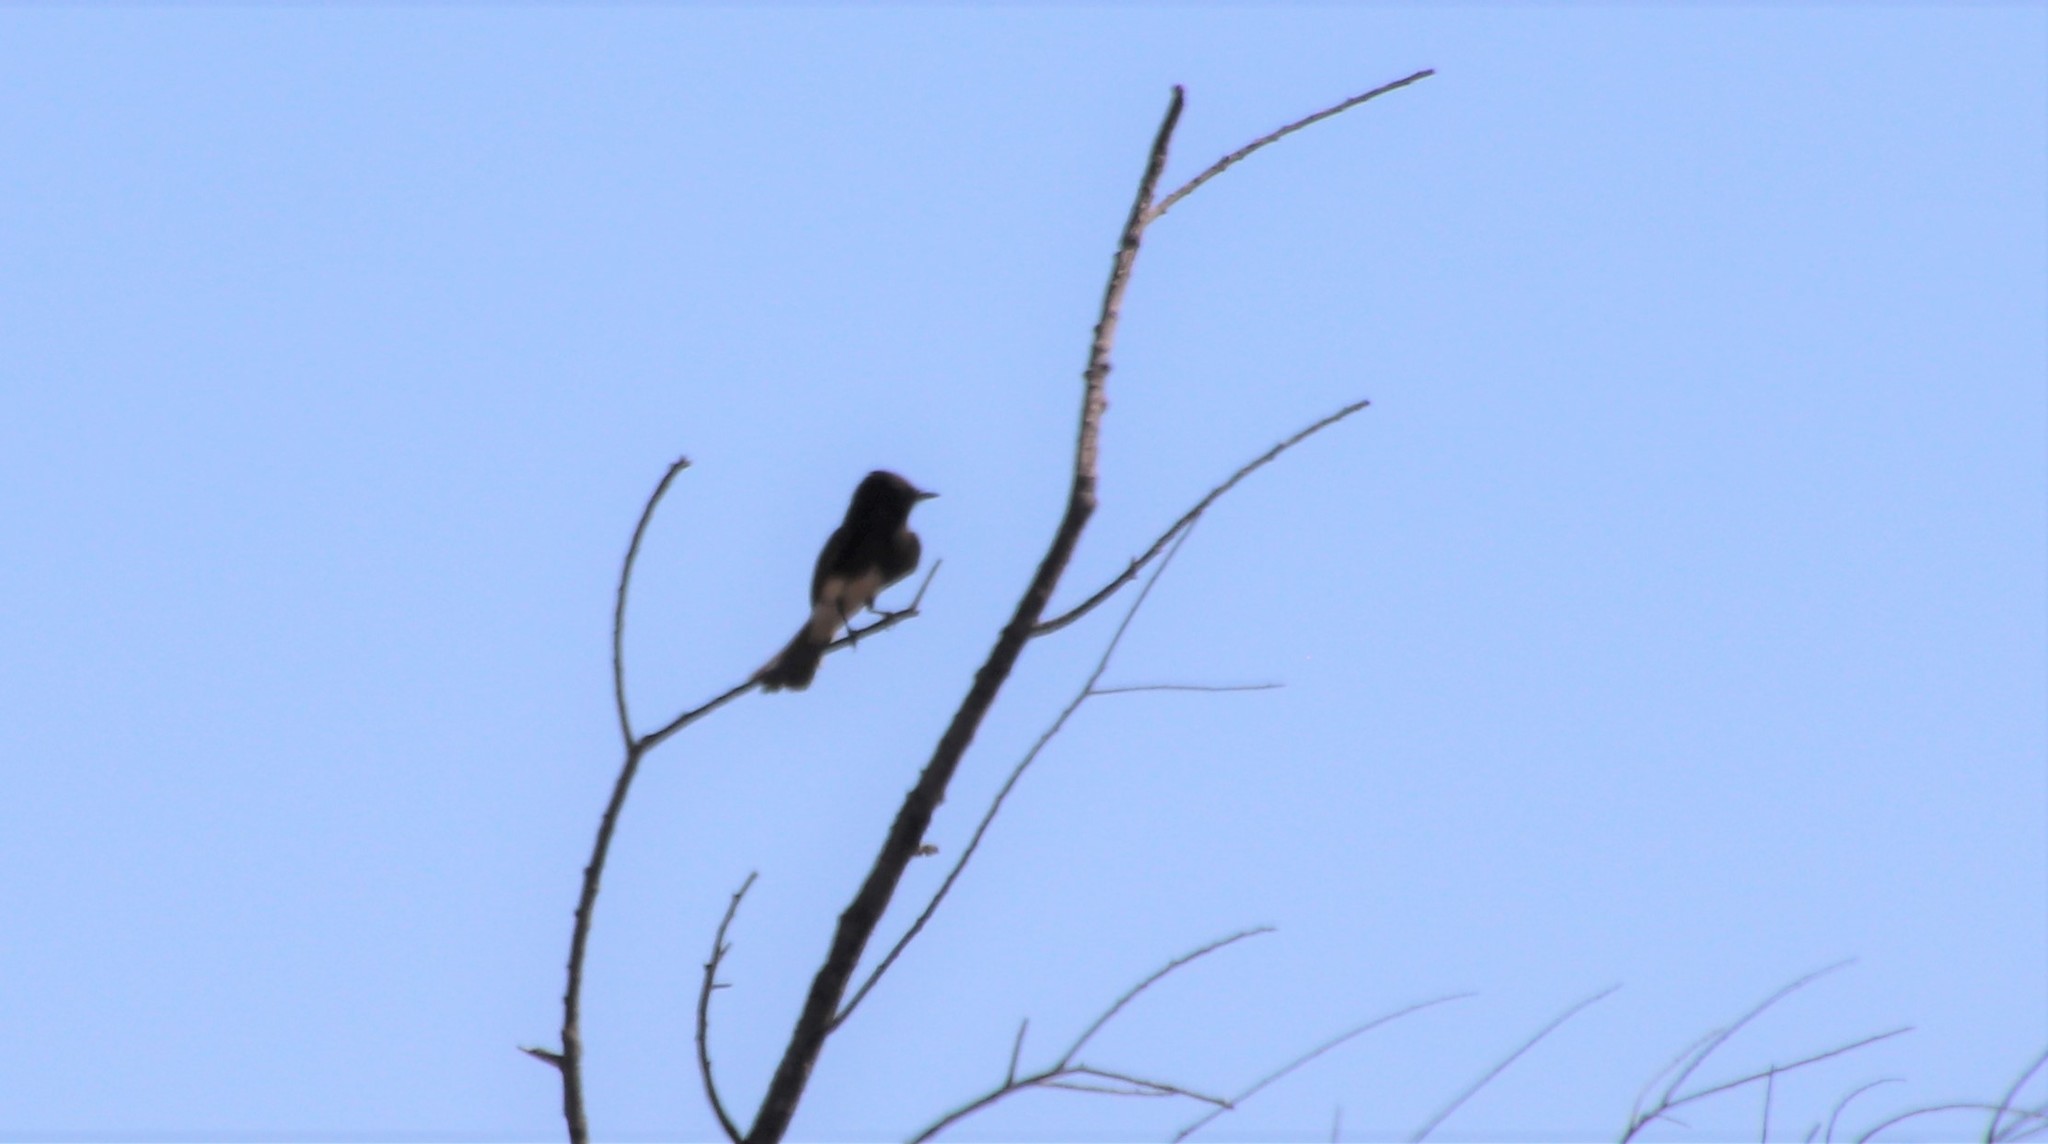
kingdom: Animalia
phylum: Chordata
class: Aves
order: Passeriformes
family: Tyrannidae
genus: Sayornis
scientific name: Sayornis nigricans
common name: Black phoebe
